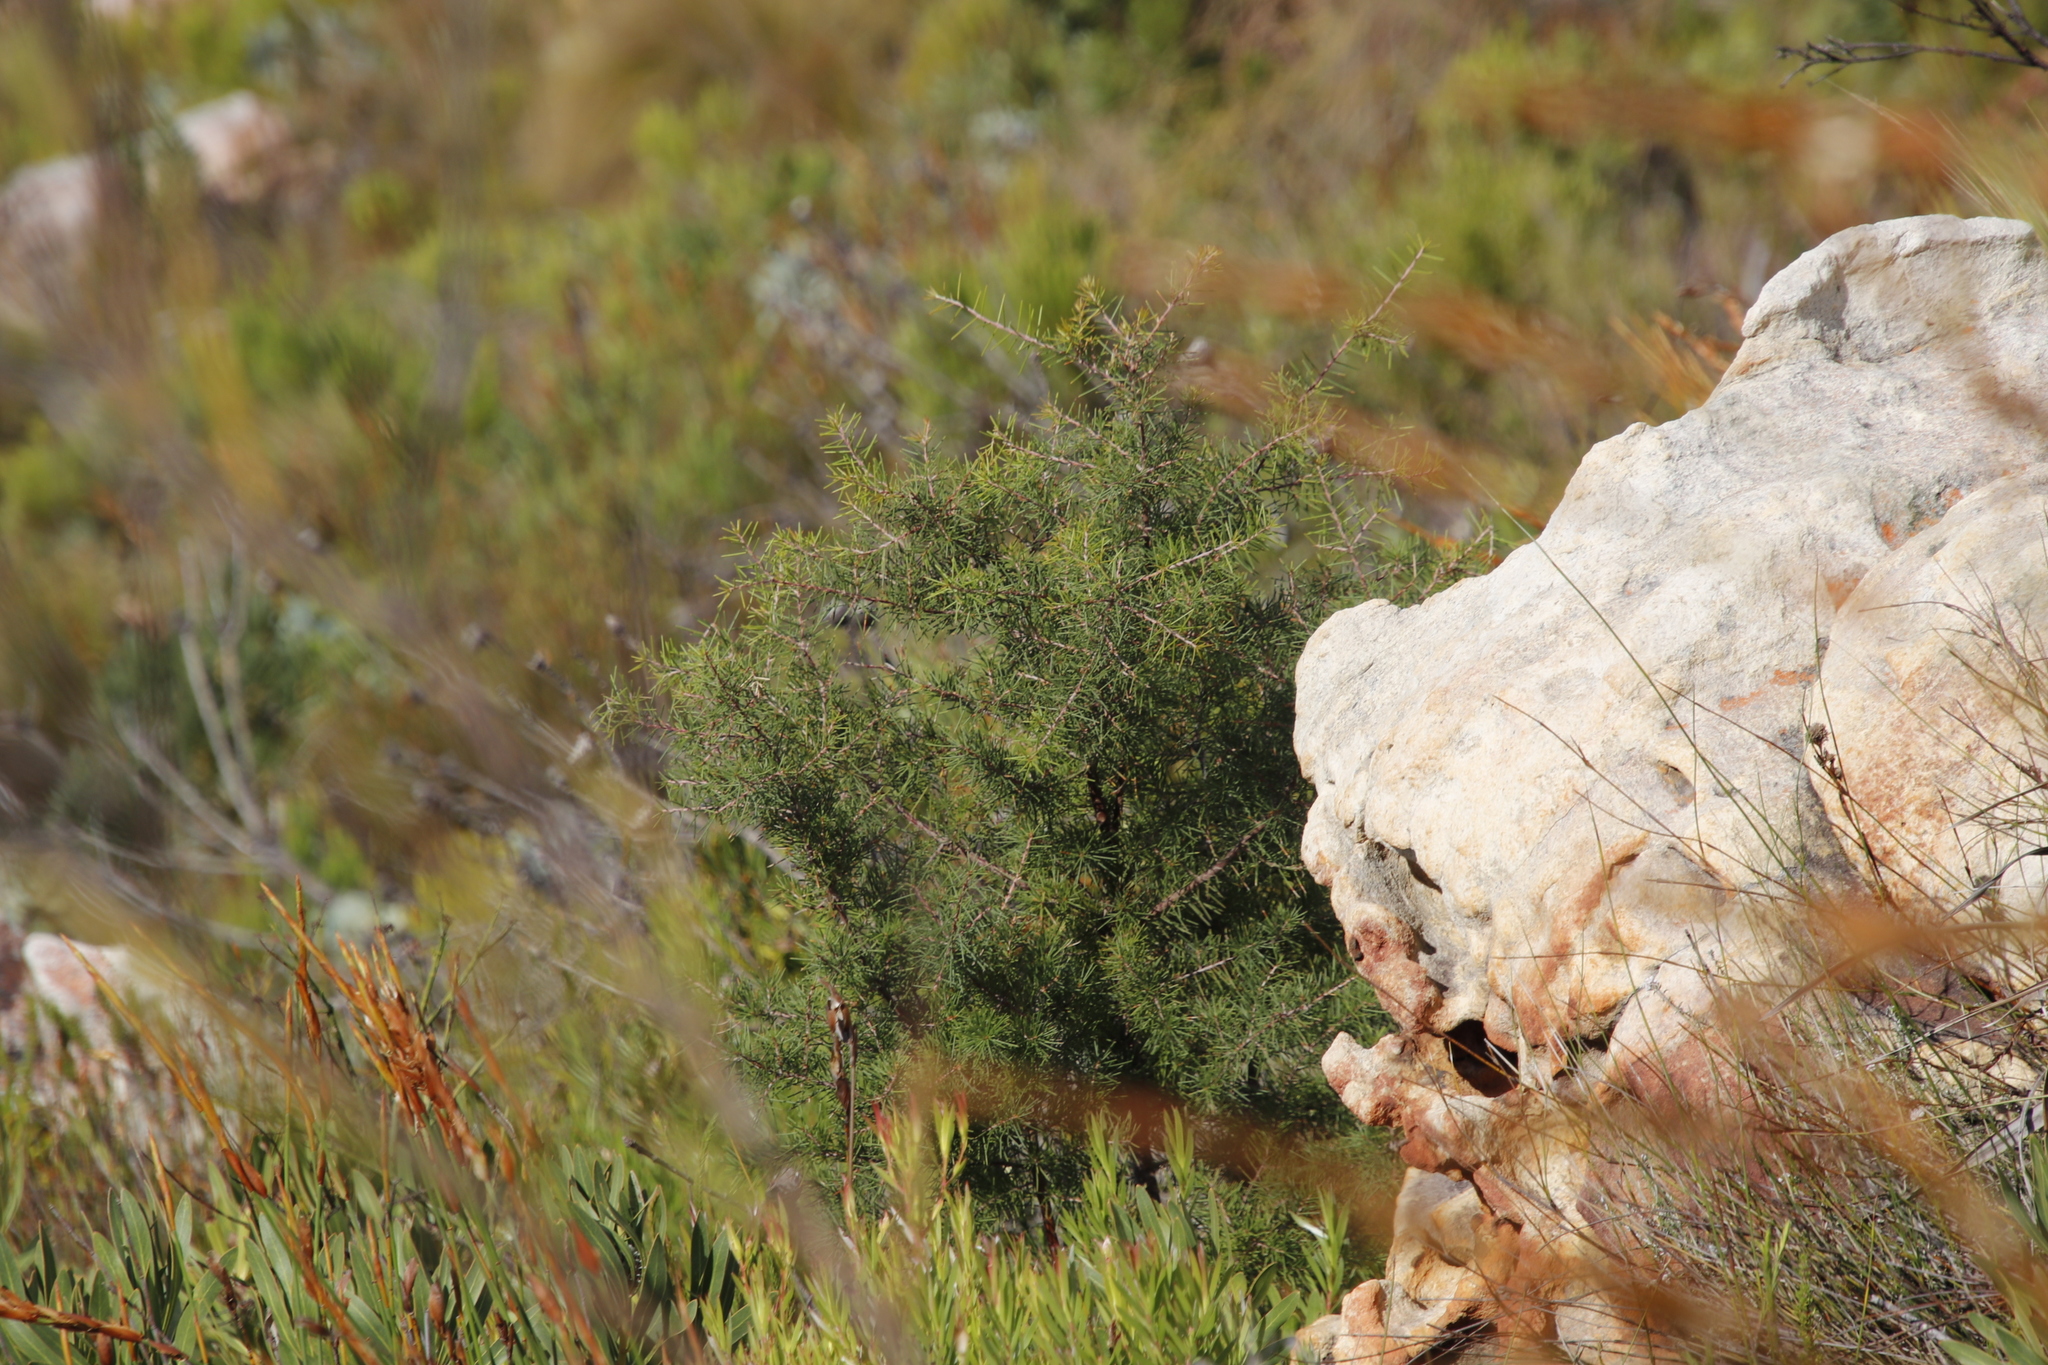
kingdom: Plantae
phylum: Tracheophyta
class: Magnoliopsida
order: Proteales
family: Proteaceae
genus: Hakea
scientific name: Hakea sericea
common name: Needle bush
